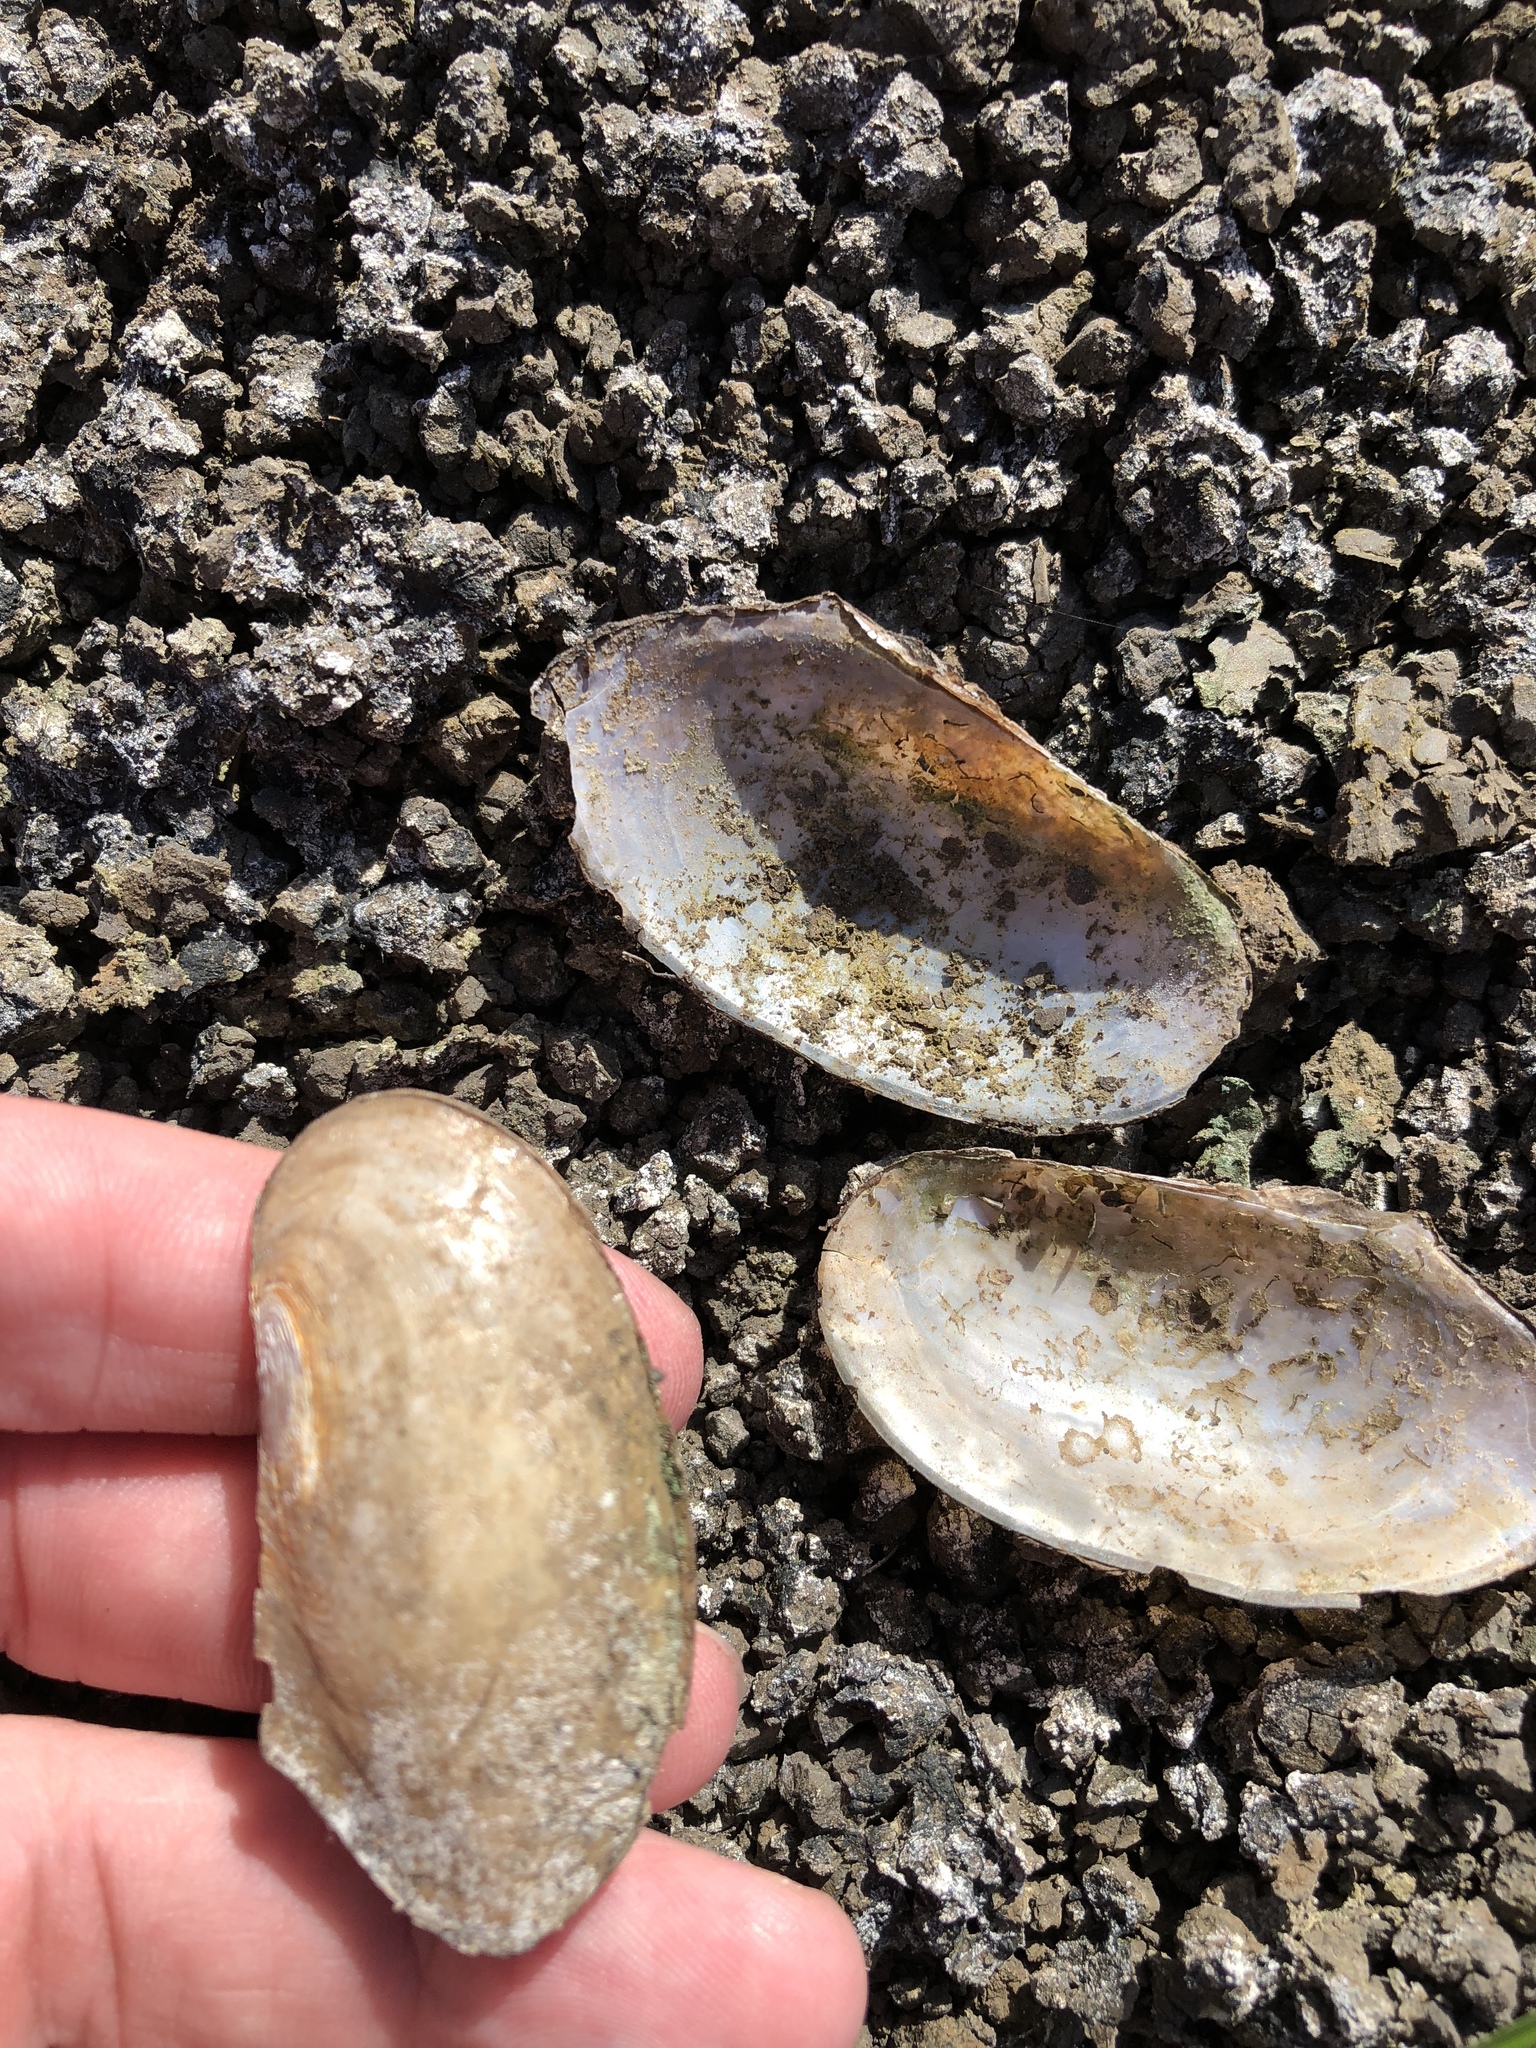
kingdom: Animalia
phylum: Mollusca
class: Bivalvia
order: Unionida
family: Unionidae
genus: Utterbackia
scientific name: Utterbackia imbecillis
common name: Paper pondshell
